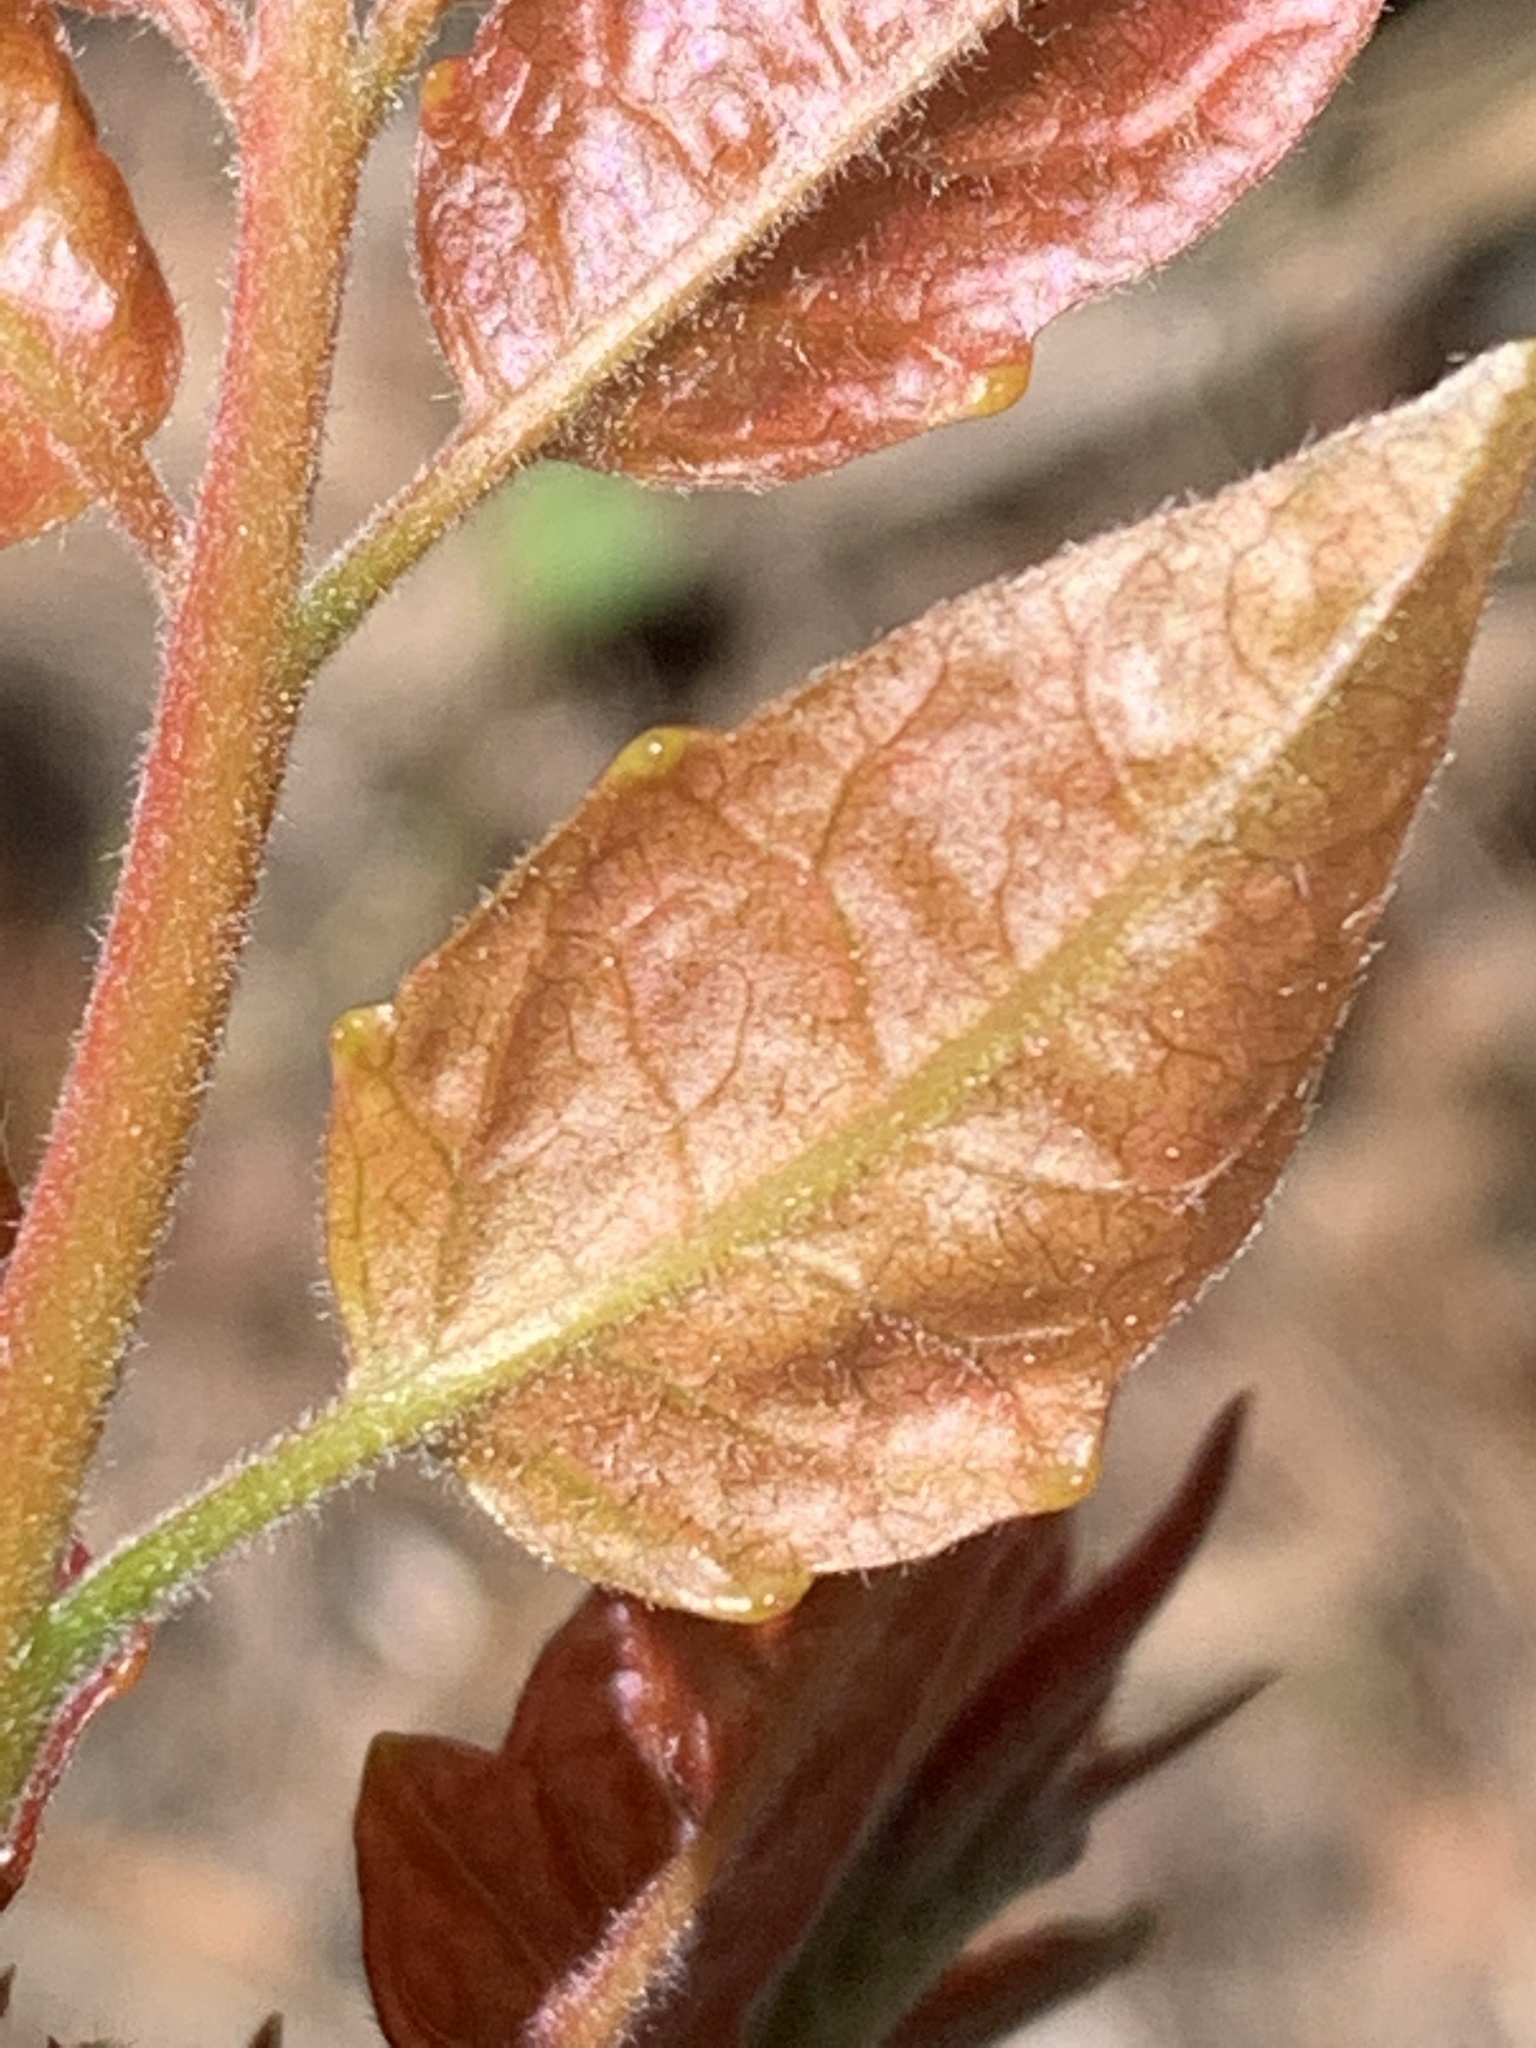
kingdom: Plantae
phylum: Tracheophyta
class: Magnoliopsida
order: Sapindales
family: Simaroubaceae
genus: Ailanthus
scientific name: Ailanthus altissima
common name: Tree-of-heaven
